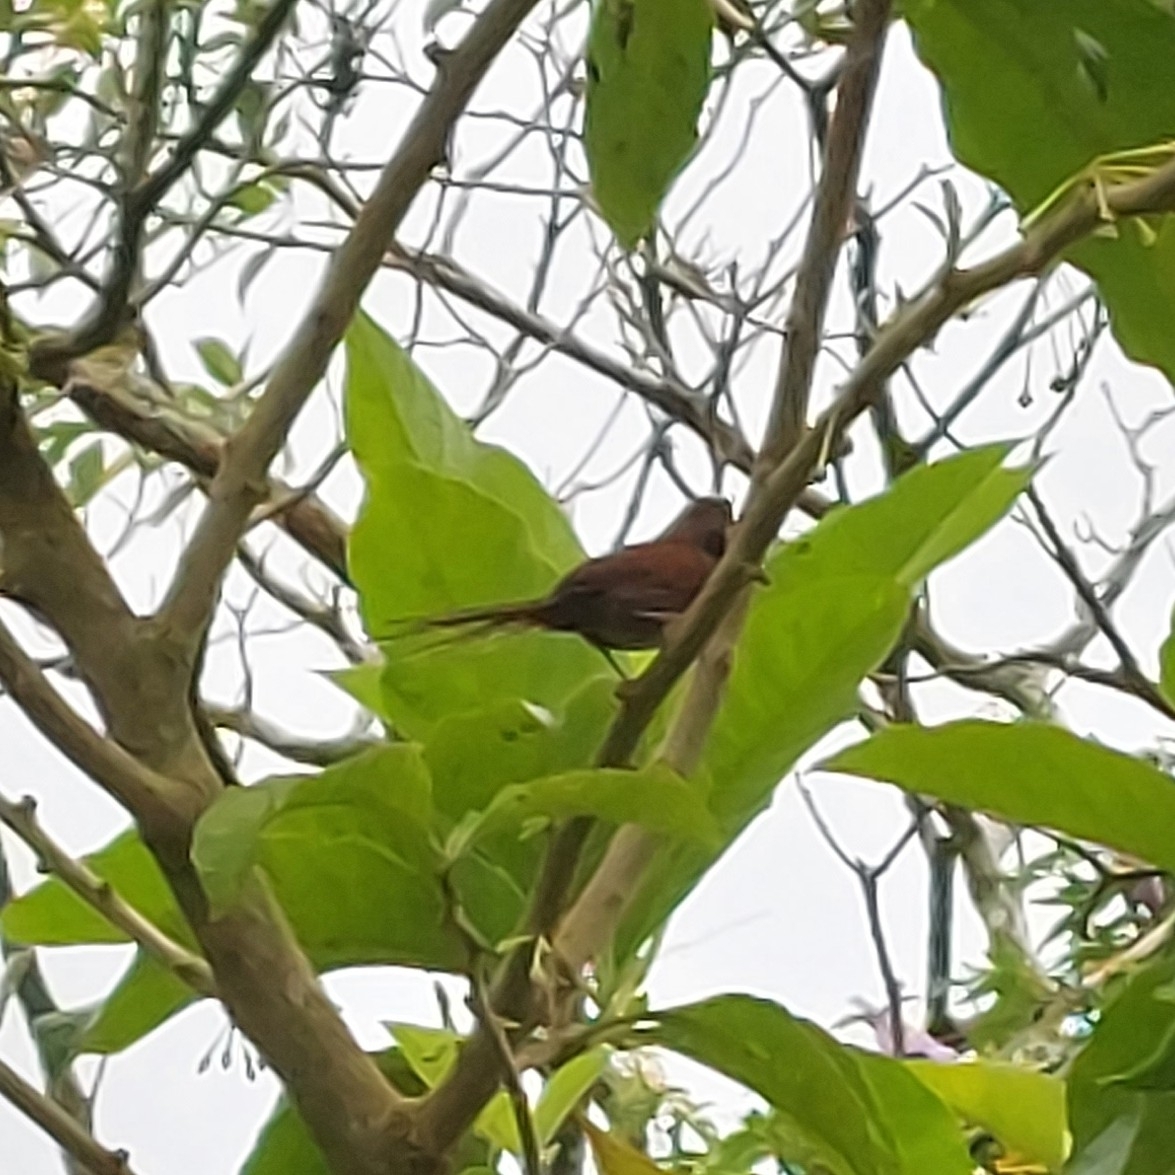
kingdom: Animalia
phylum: Chordata
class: Aves
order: Passeriformes
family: Furnariidae
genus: Synallaxis
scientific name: Synallaxis spixi
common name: Spix's spinetail
